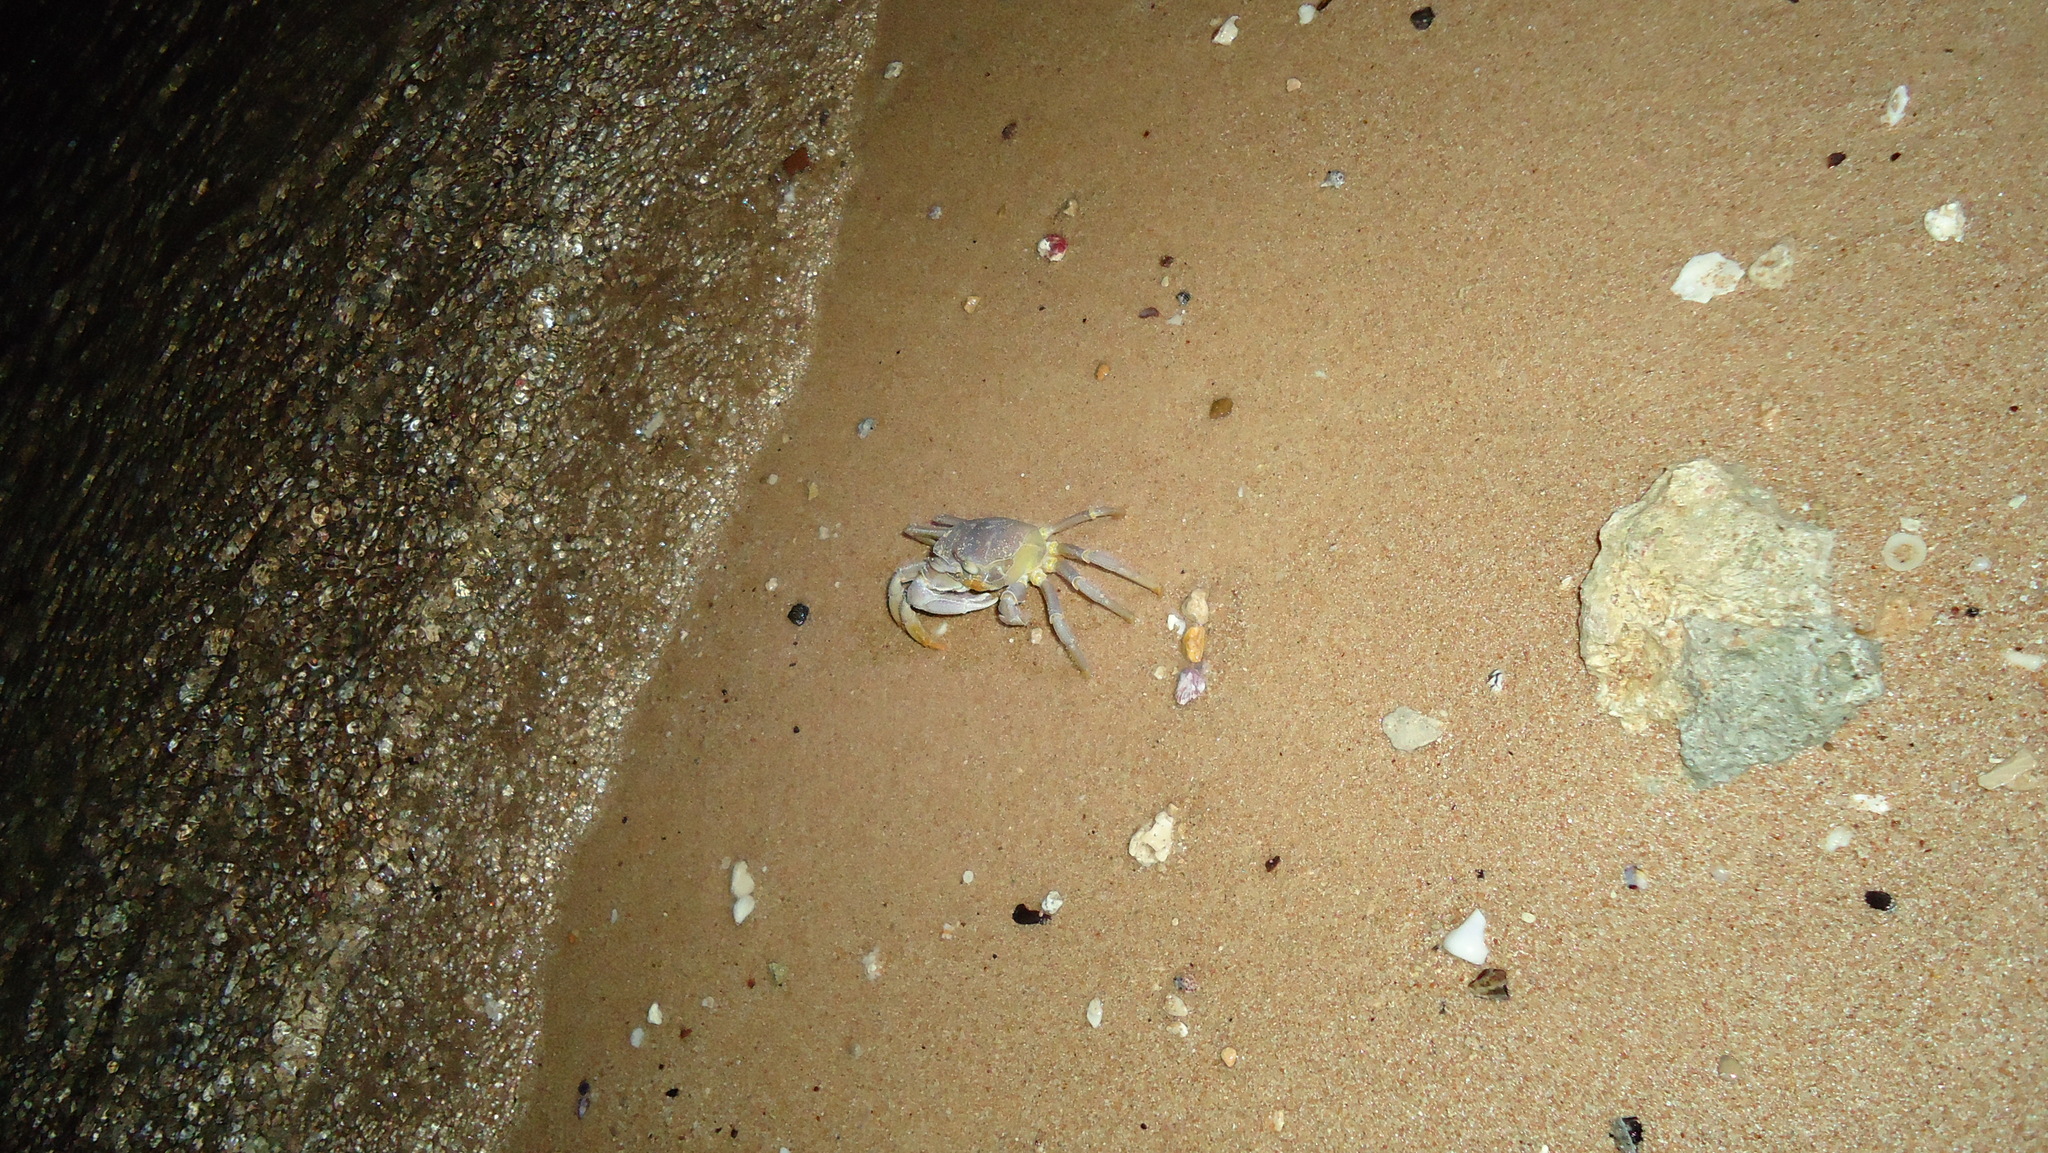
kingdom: Animalia
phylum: Arthropoda
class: Malacostraca
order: Decapoda
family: Ocypodidae
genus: Ocypode
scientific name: Ocypode saratan
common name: Red sea ghost crab
